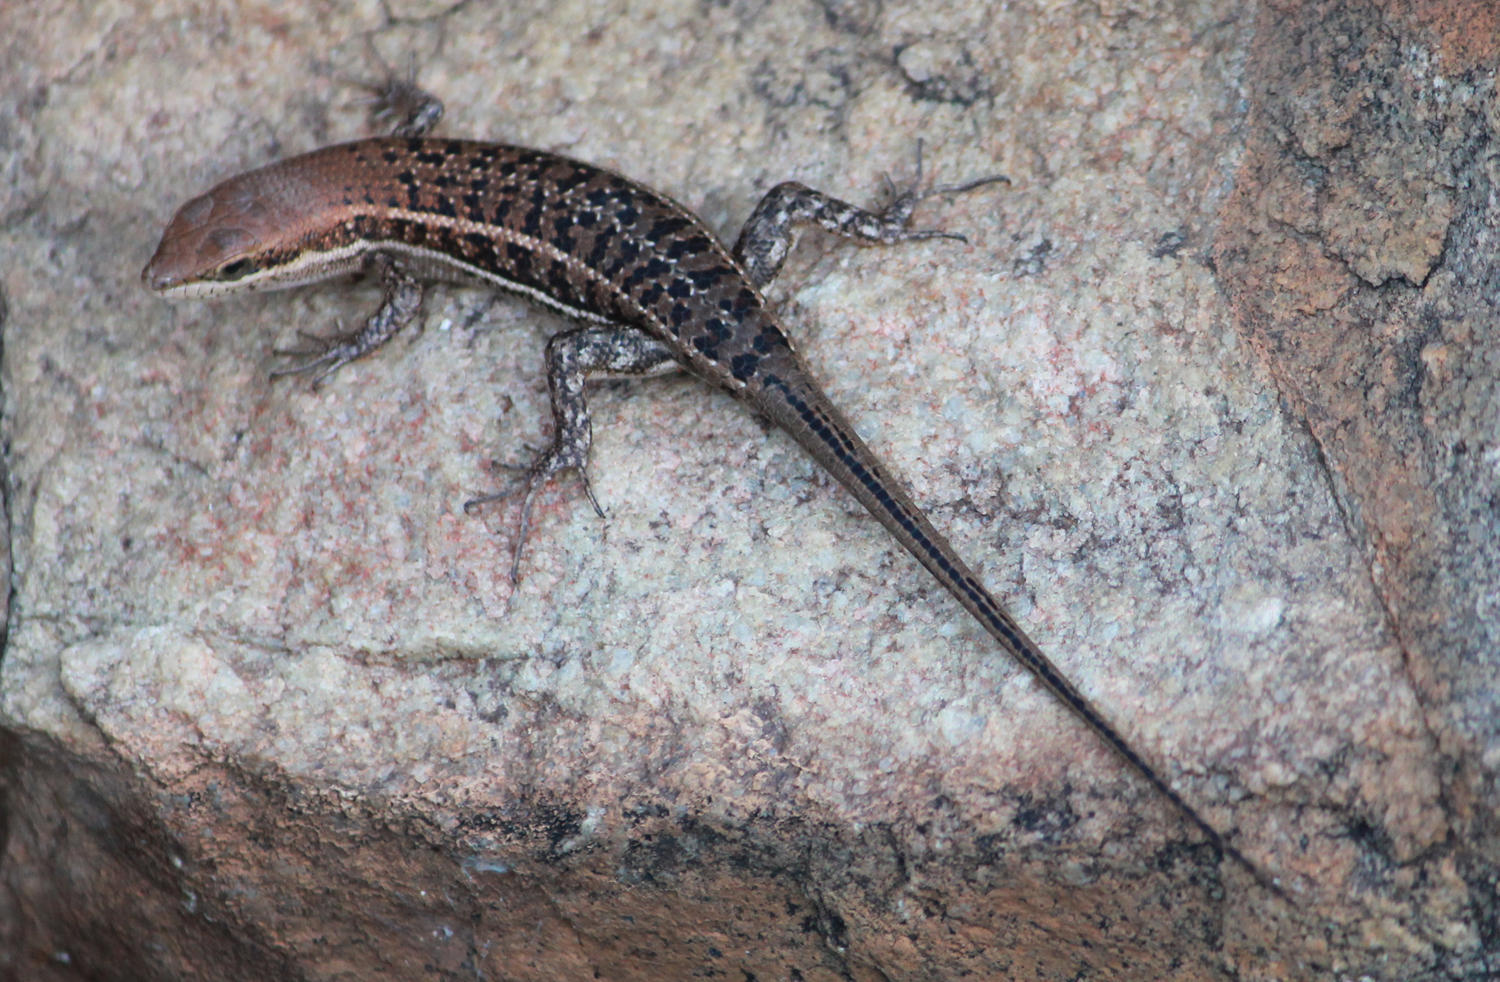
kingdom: Animalia
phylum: Chordata
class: Squamata
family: Scincidae
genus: Trachylepis
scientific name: Trachylepis varia
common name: Eastern variable skink
